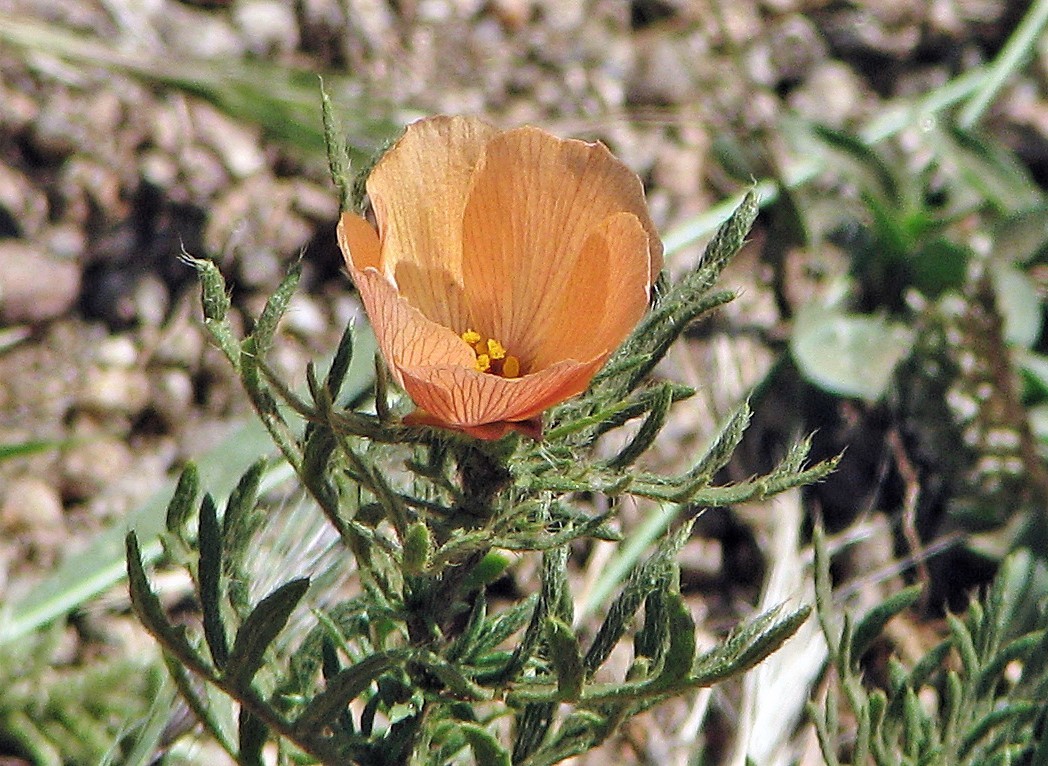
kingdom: Plantae
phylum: Tracheophyta
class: Magnoliopsida
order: Malpighiales
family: Turneraceae
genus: Turnera
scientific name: Turnera sidoides
